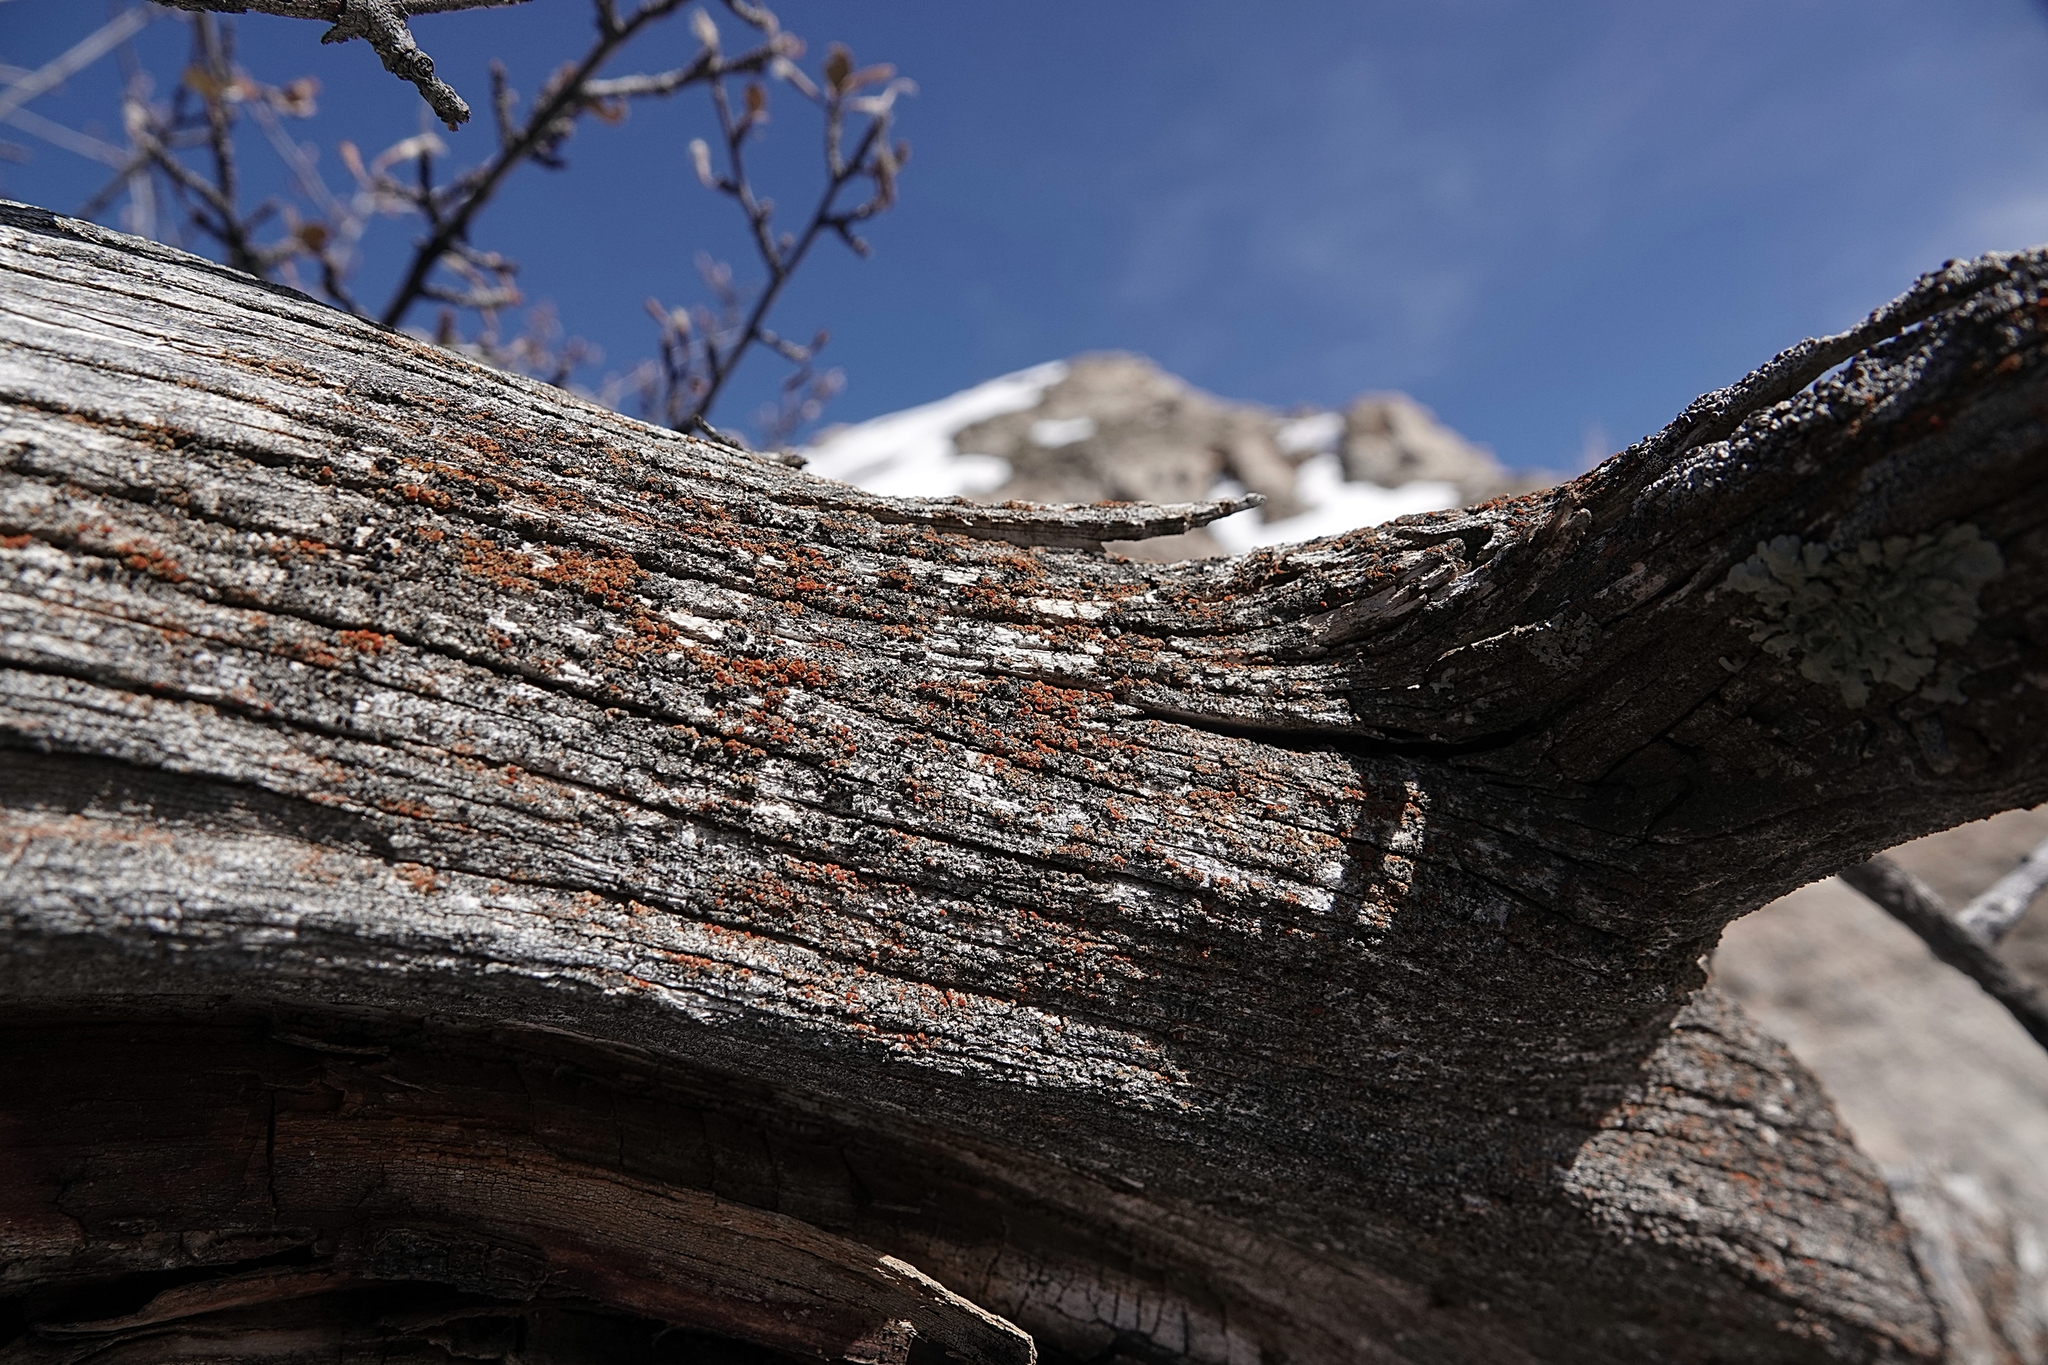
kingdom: Fungi
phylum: Ascomycota
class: Lecanoromycetes
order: Teloschistales
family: Teloschistaceae
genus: Opeltia
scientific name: Opeltia flavorubescens
